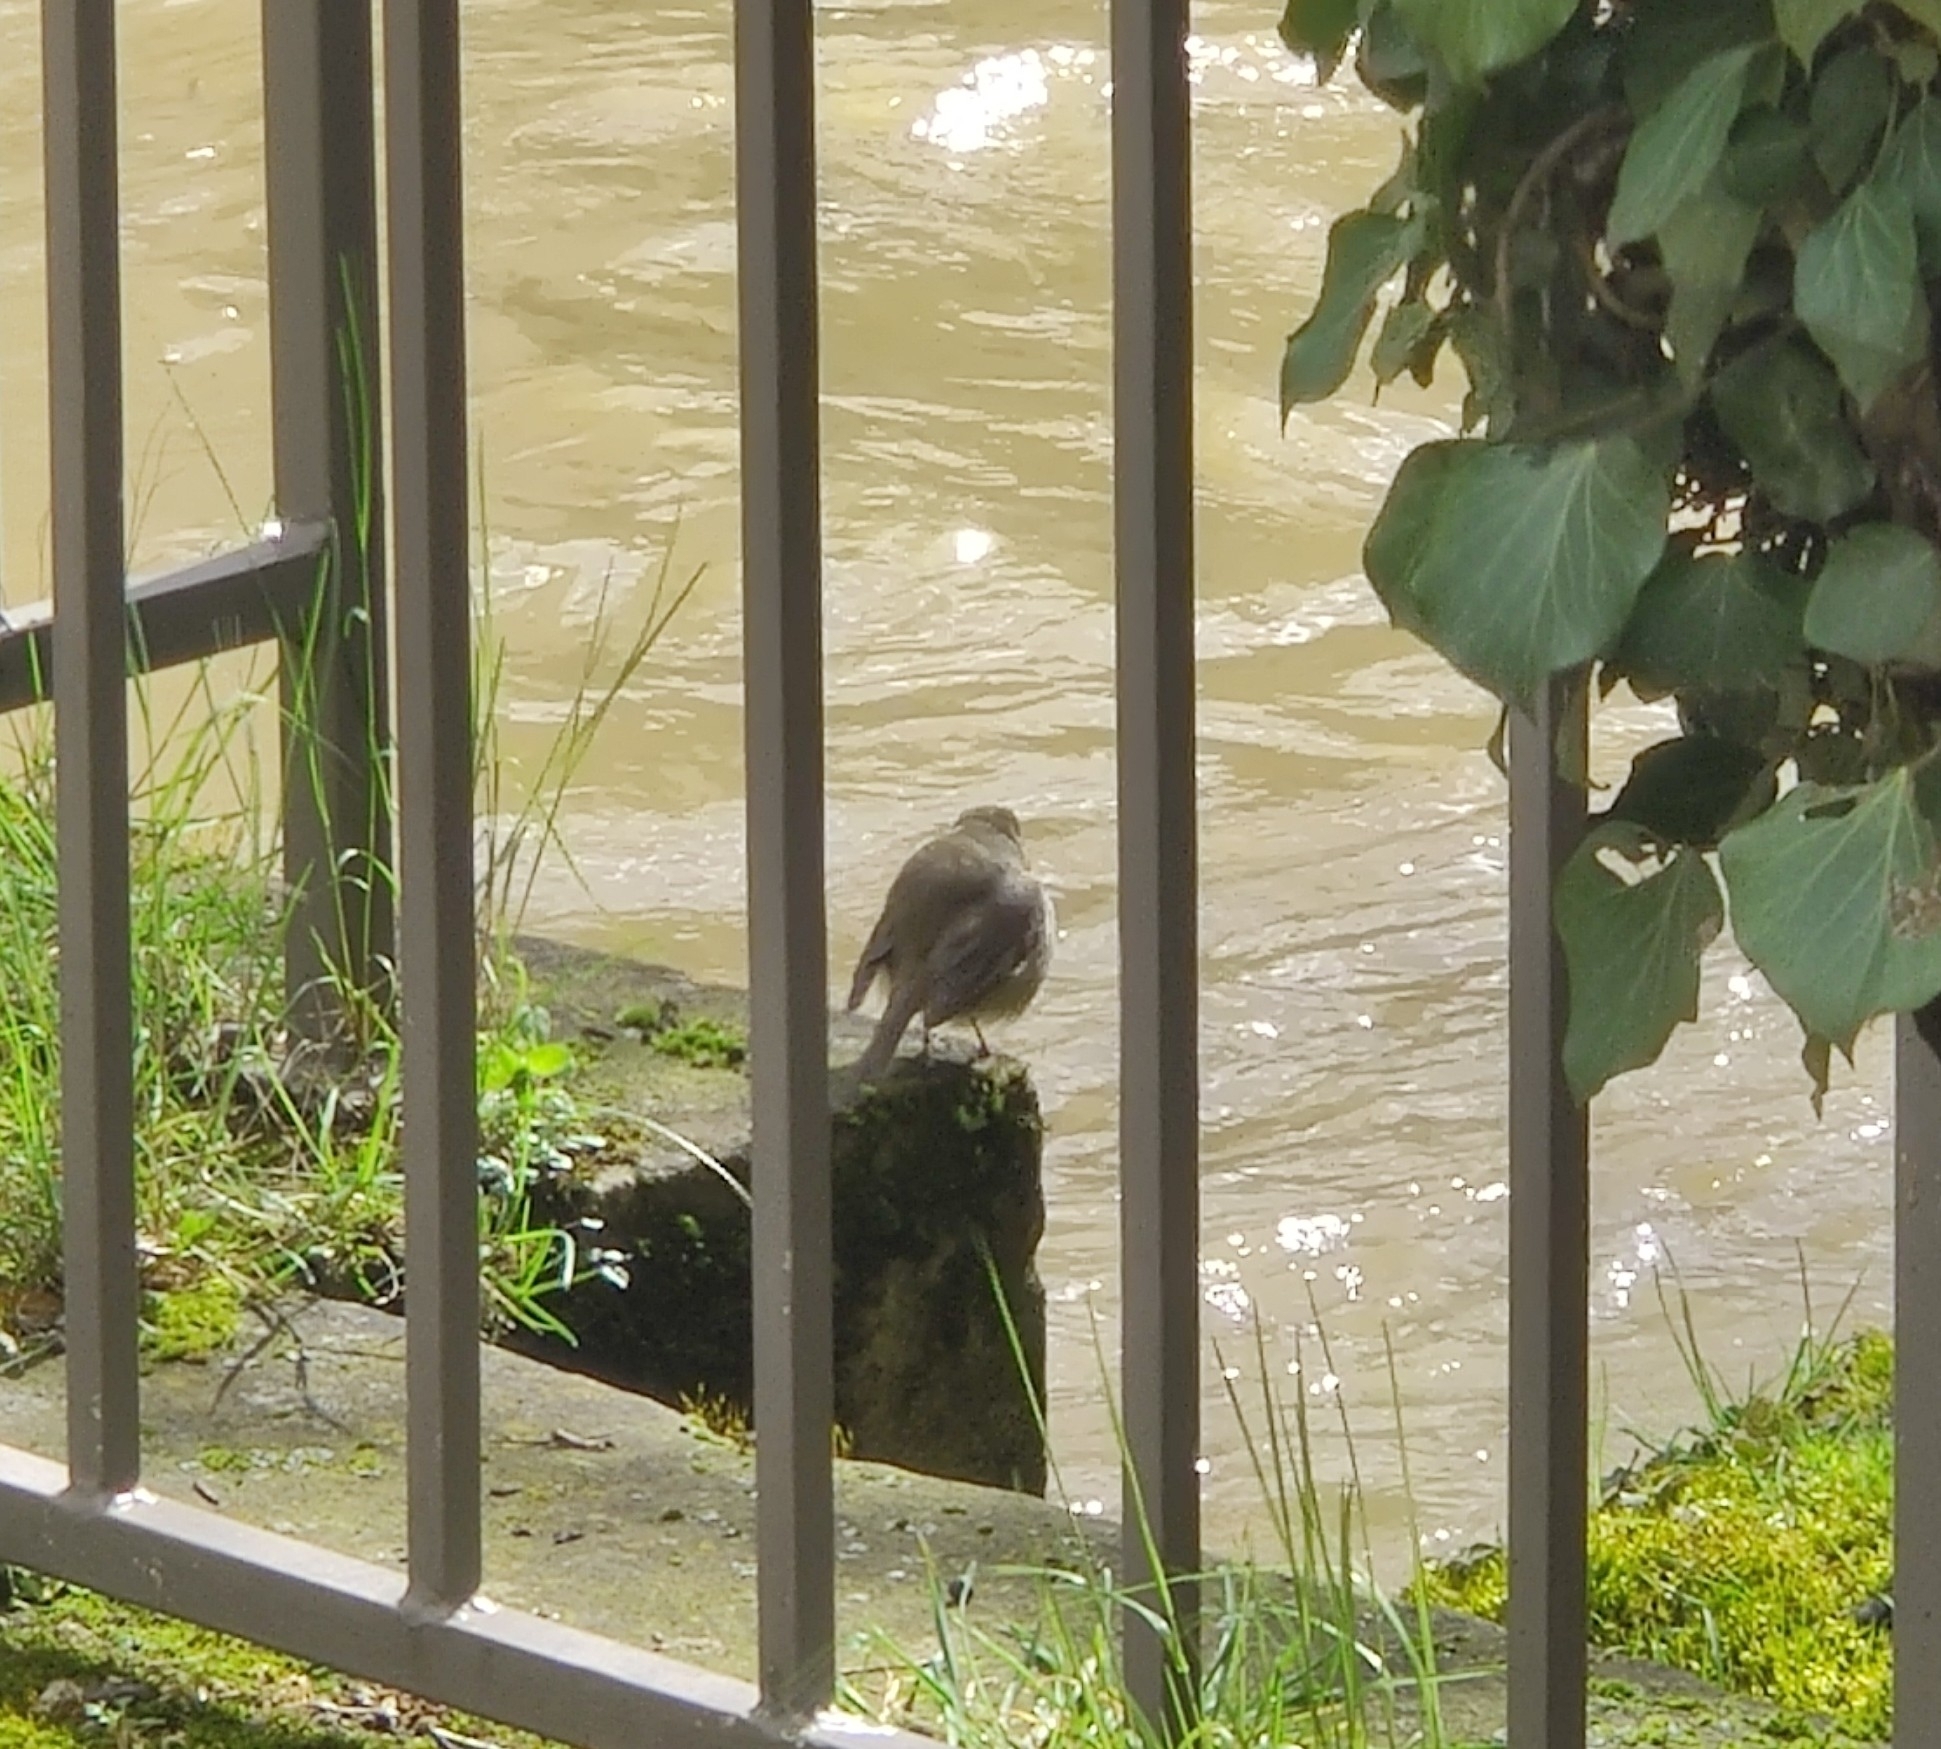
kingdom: Animalia
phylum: Chordata
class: Aves
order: Passeriformes
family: Muscicapidae
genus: Erithacus
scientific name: Erithacus rubecula
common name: European robin
